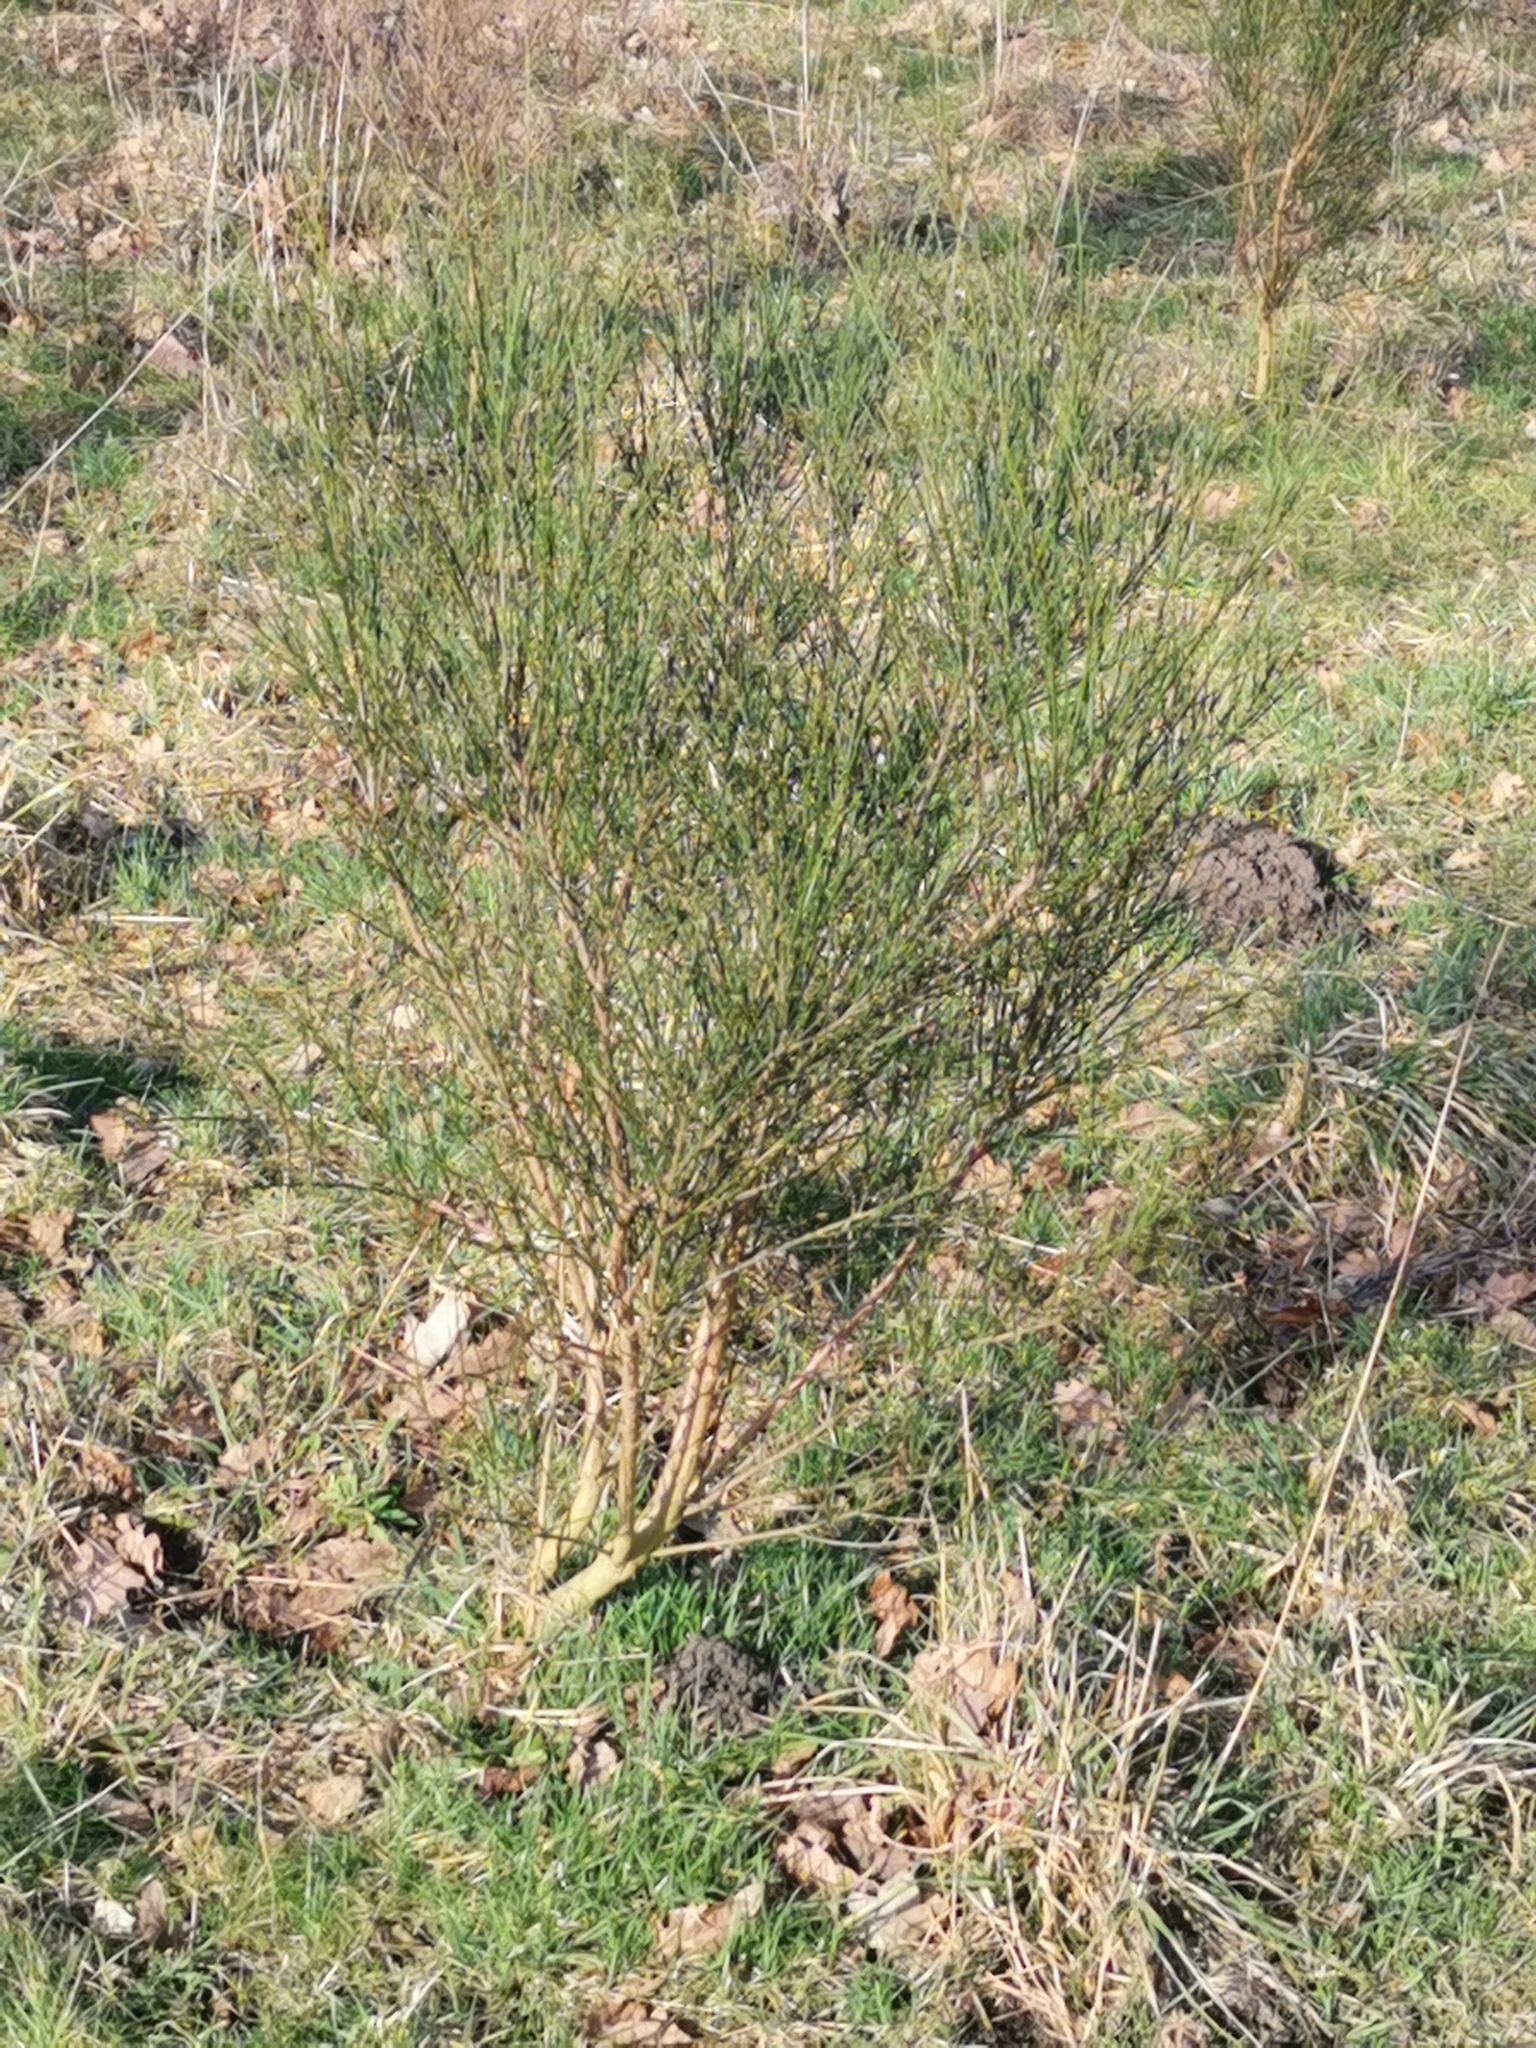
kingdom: Plantae
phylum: Tracheophyta
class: Magnoliopsida
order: Fabales
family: Fabaceae
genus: Cytisus
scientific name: Cytisus scoparius
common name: Scotch broom
